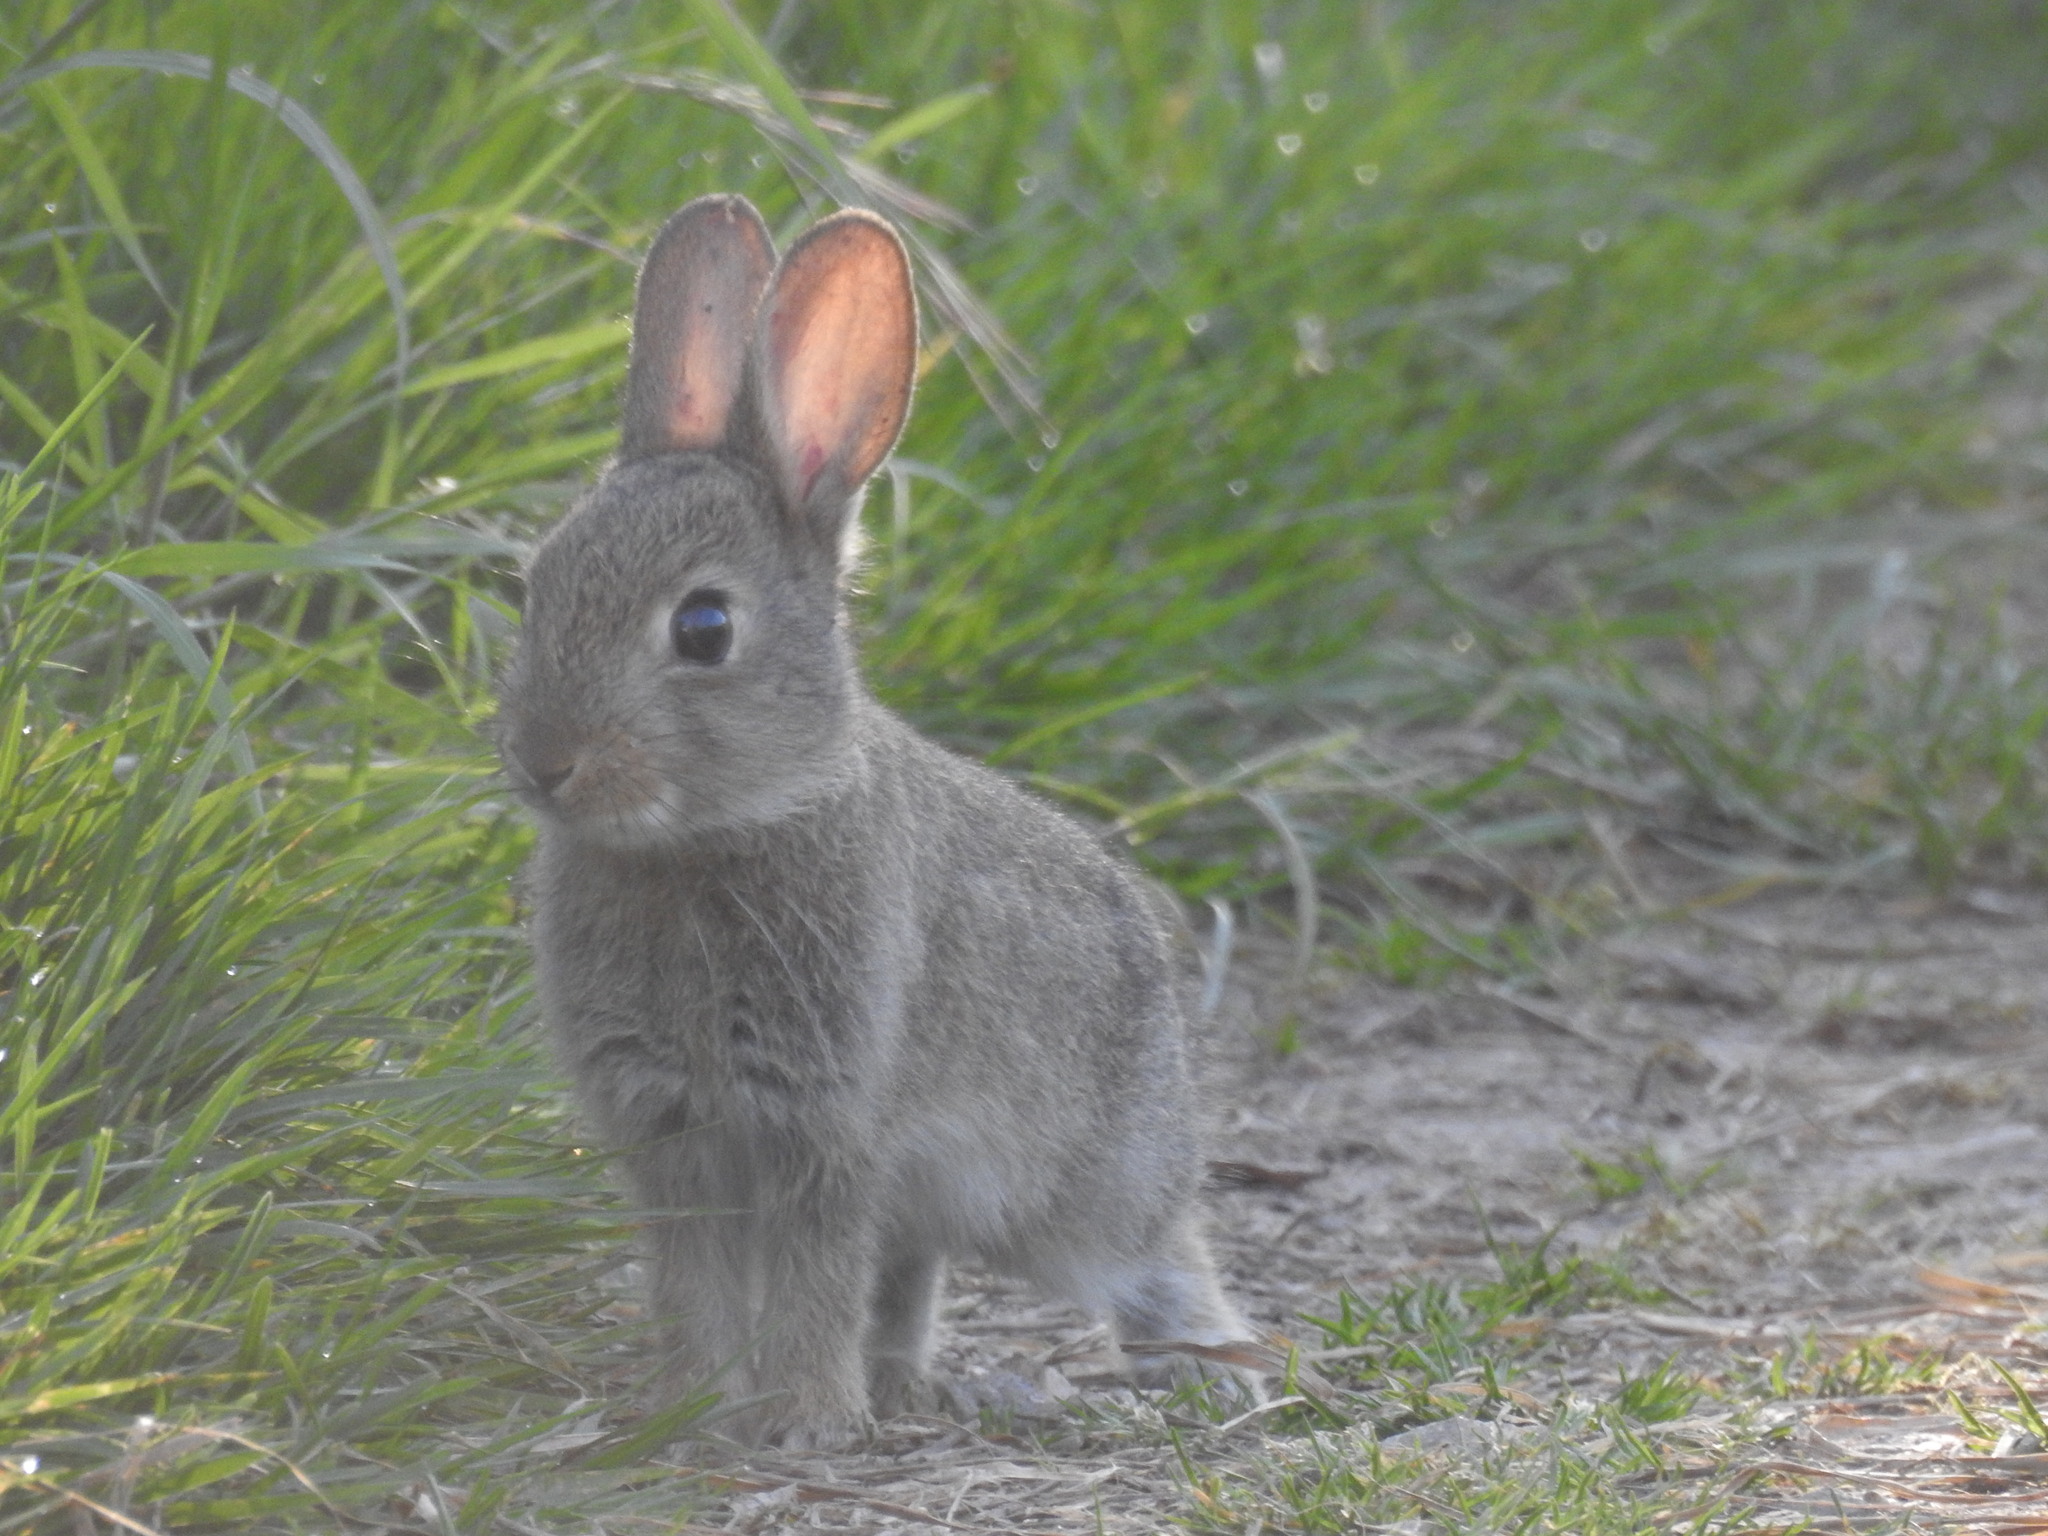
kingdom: Animalia
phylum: Chordata
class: Mammalia
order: Lagomorpha
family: Leporidae
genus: Oryctolagus
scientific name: Oryctolagus cuniculus
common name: European rabbit
